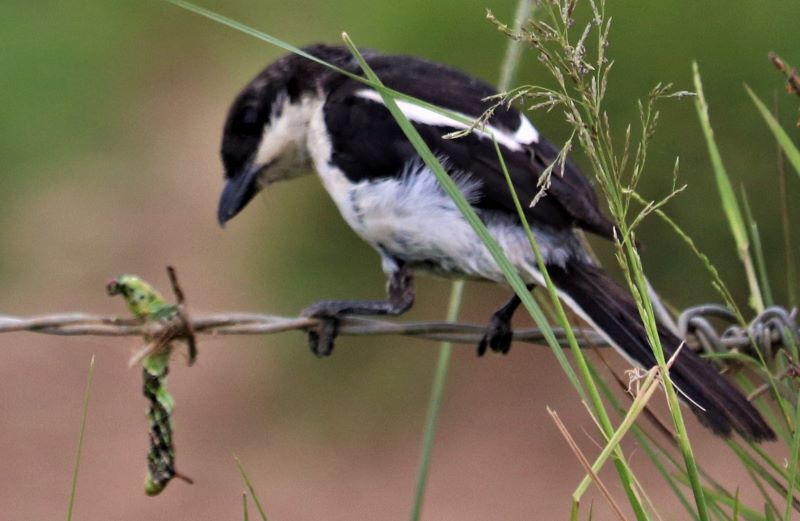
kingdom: Animalia
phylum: Chordata
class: Aves
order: Passeriformes
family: Laniidae
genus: Lanius
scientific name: Lanius collaris
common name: Southern fiscal
